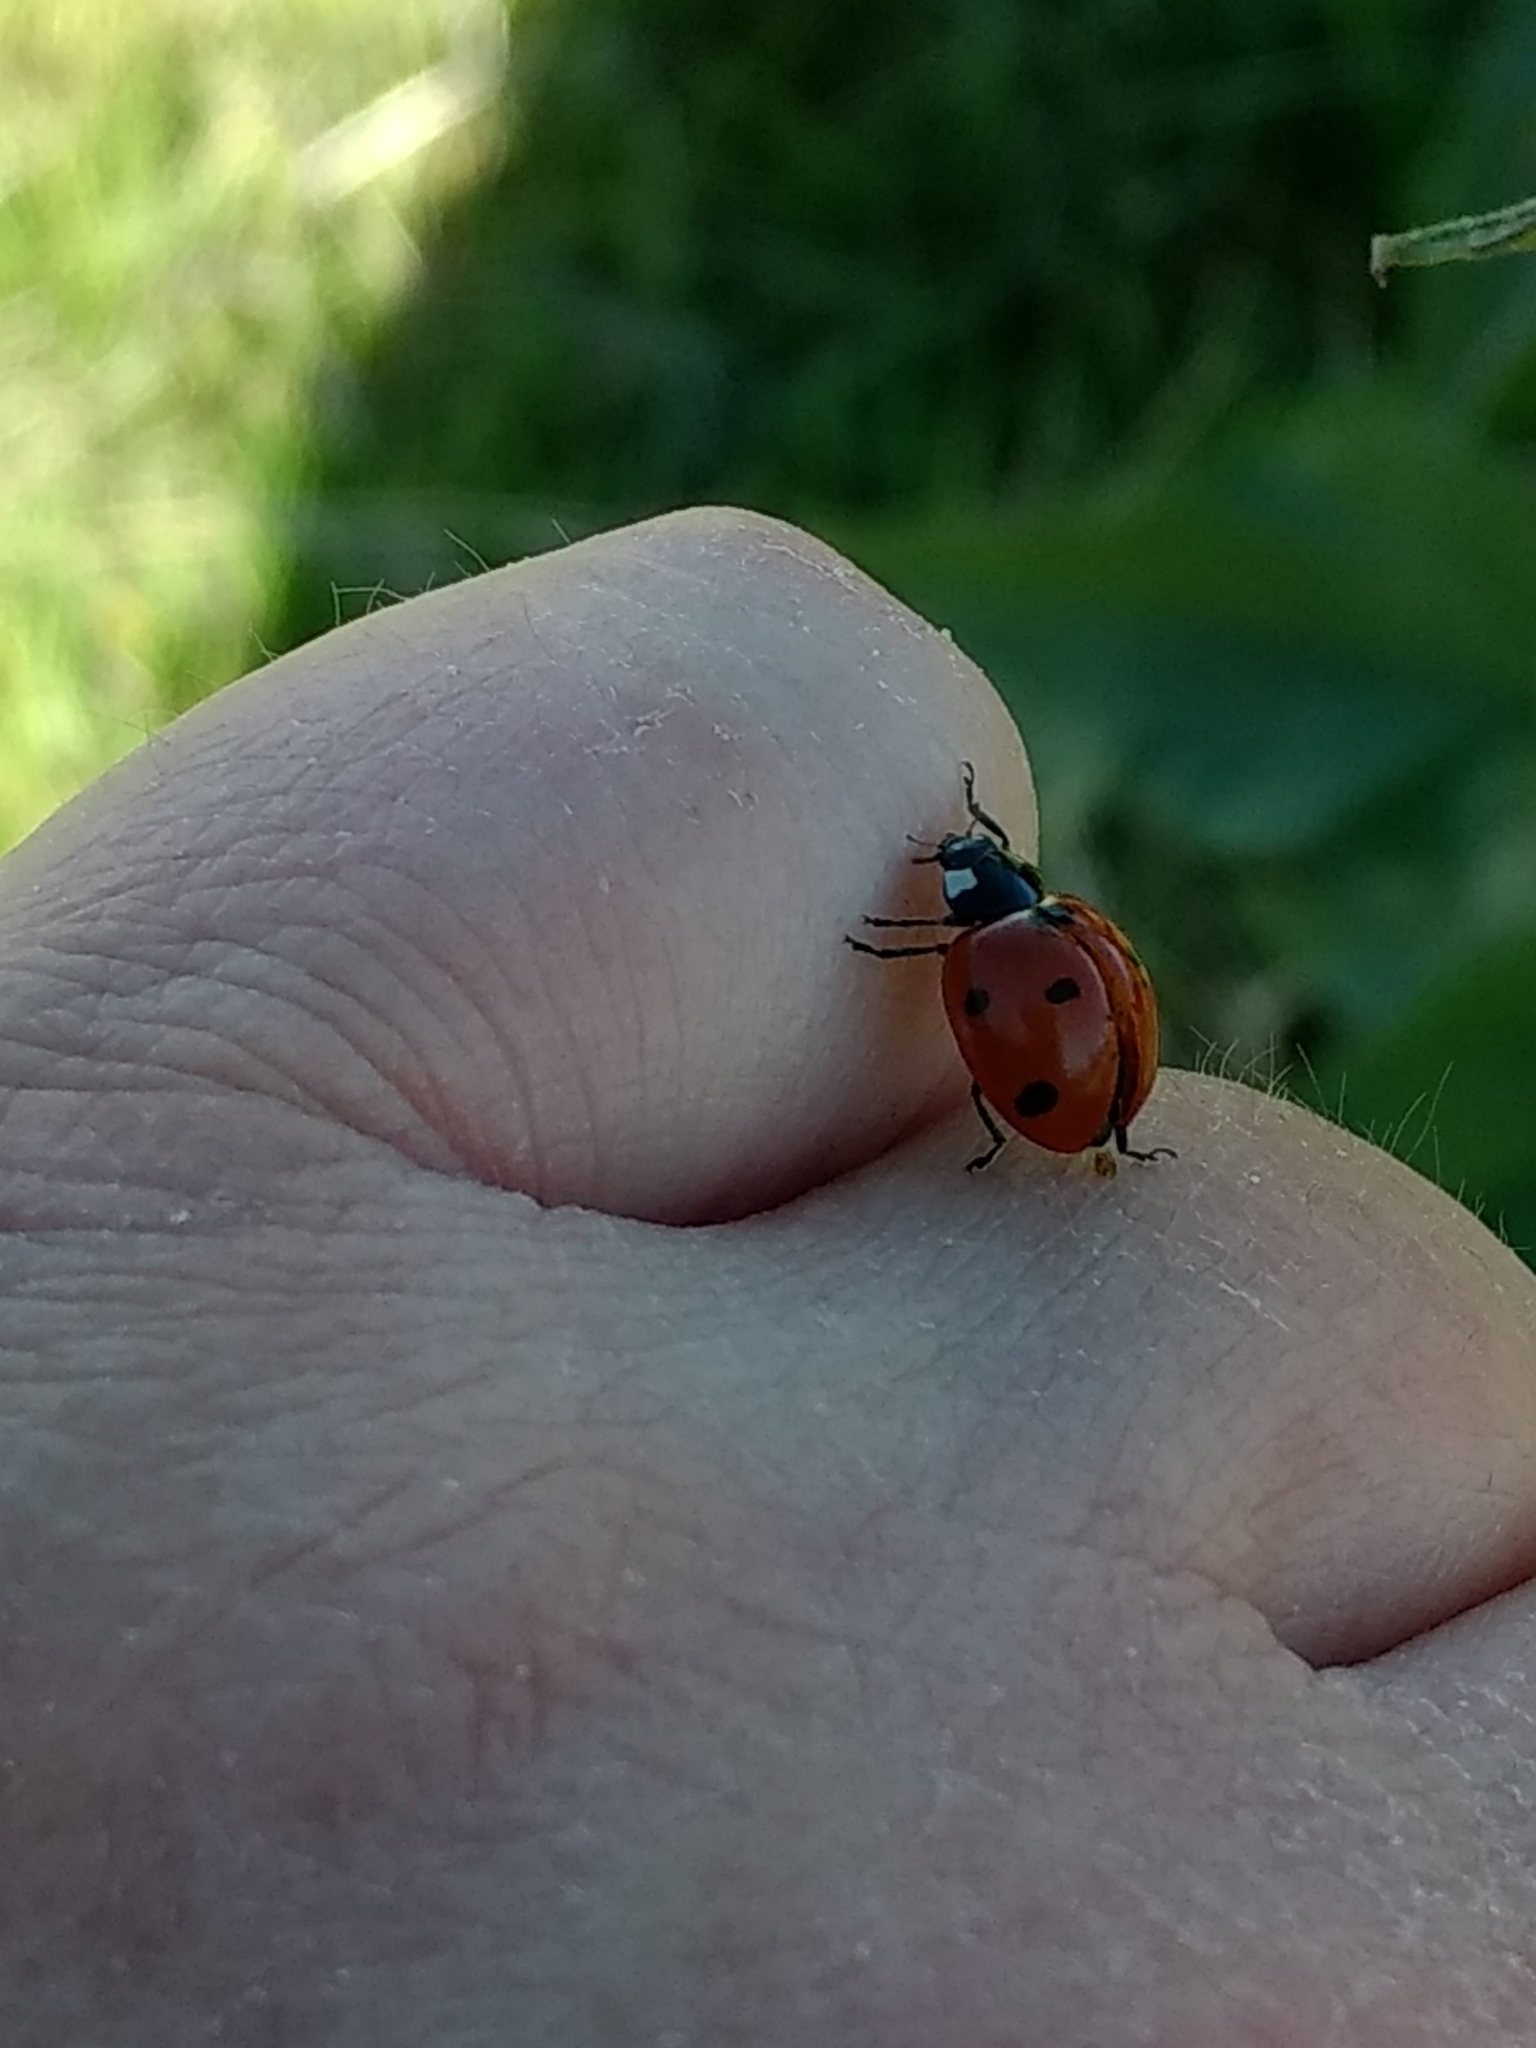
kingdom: Animalia
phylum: Arthropoda
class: Insecta
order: Coleoptera
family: Coccinellidae
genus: Coccinella
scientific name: Coccinella septempunctata
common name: Sevenspotted lady beetle
